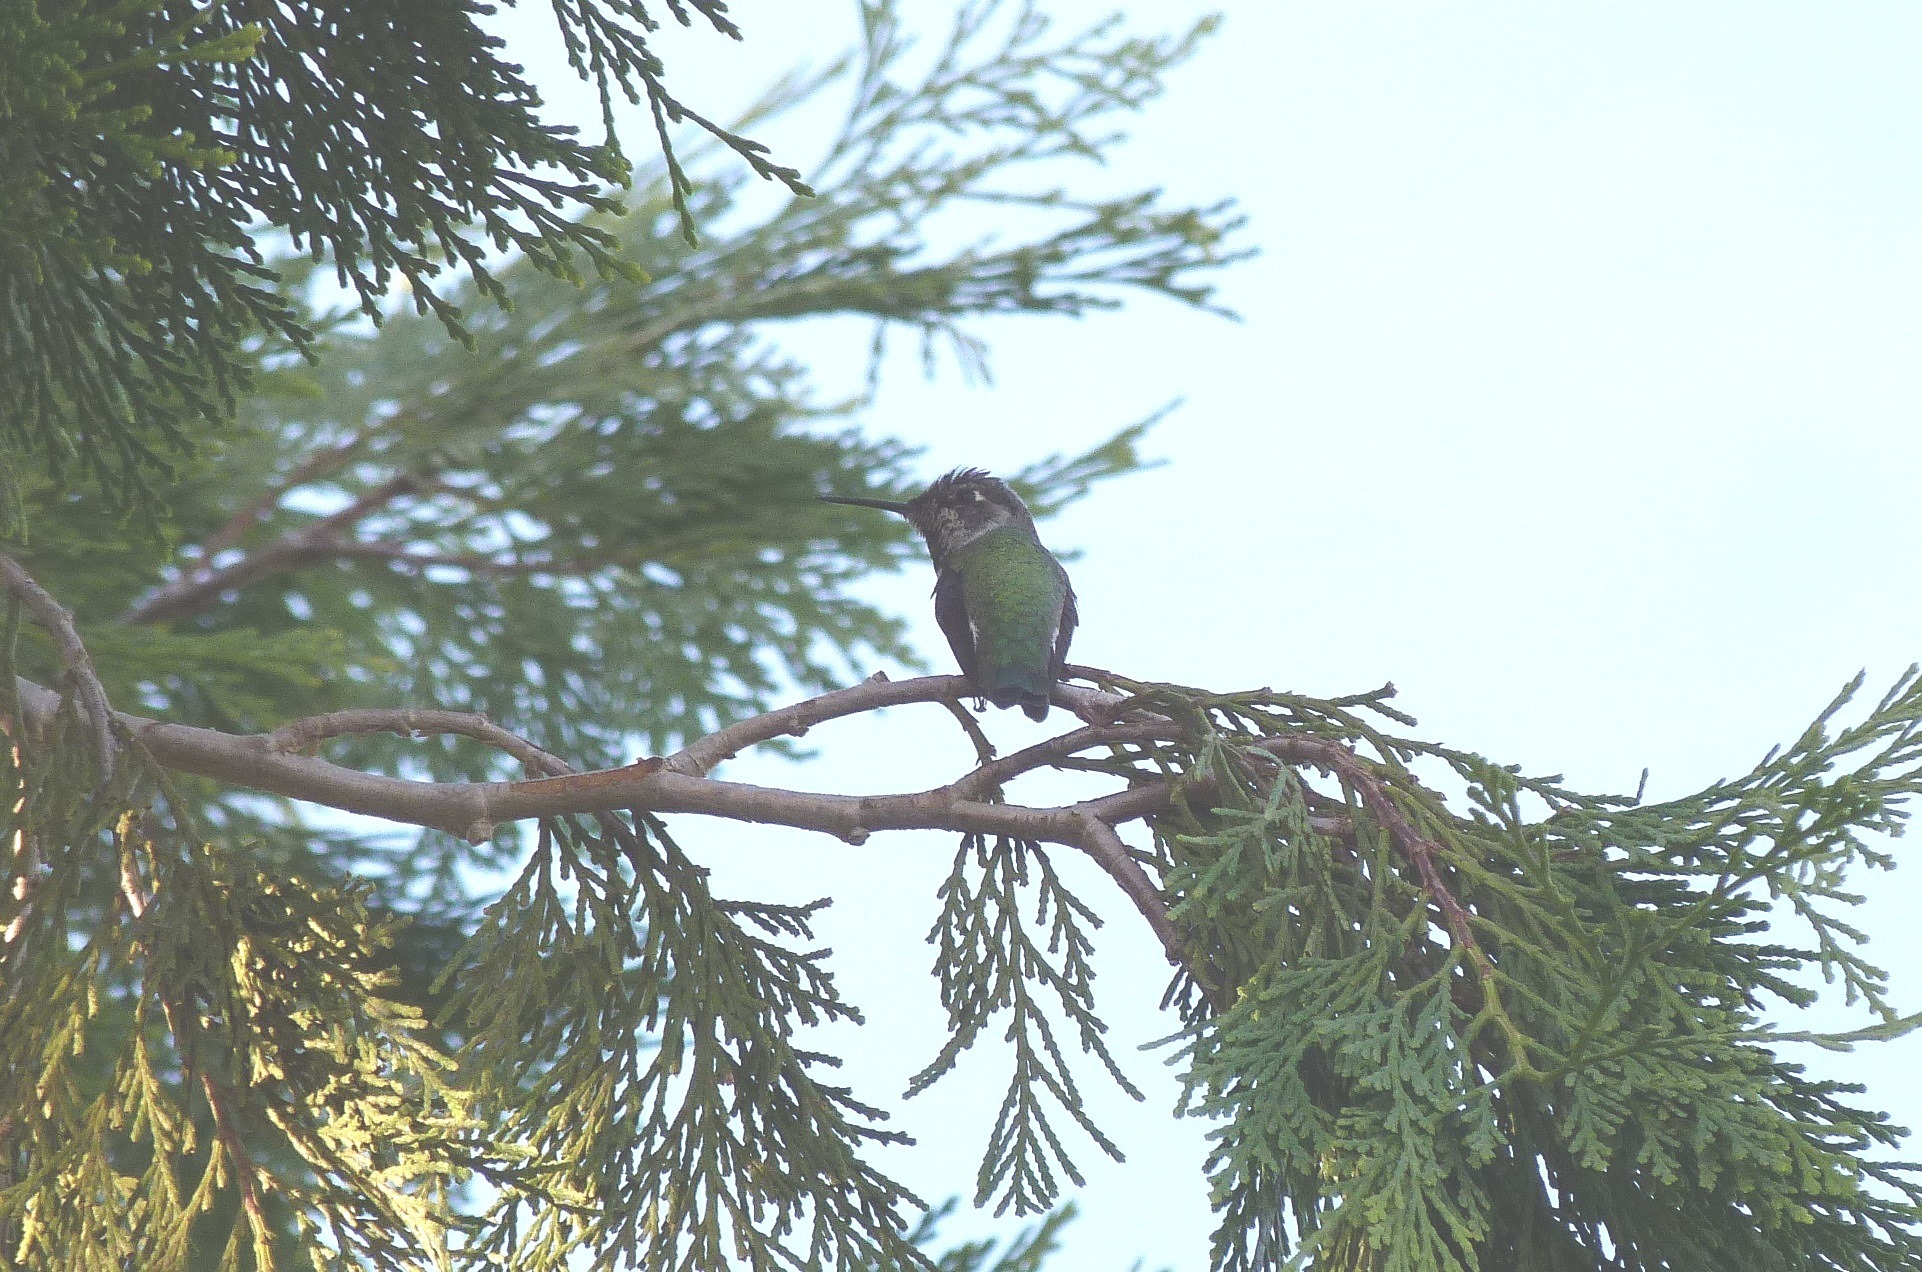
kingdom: Animalia
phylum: Chordata
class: Aves
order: Apodiformes
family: Trochilidae
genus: Calypte
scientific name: Calypte anna
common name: Anna's hummingbird
